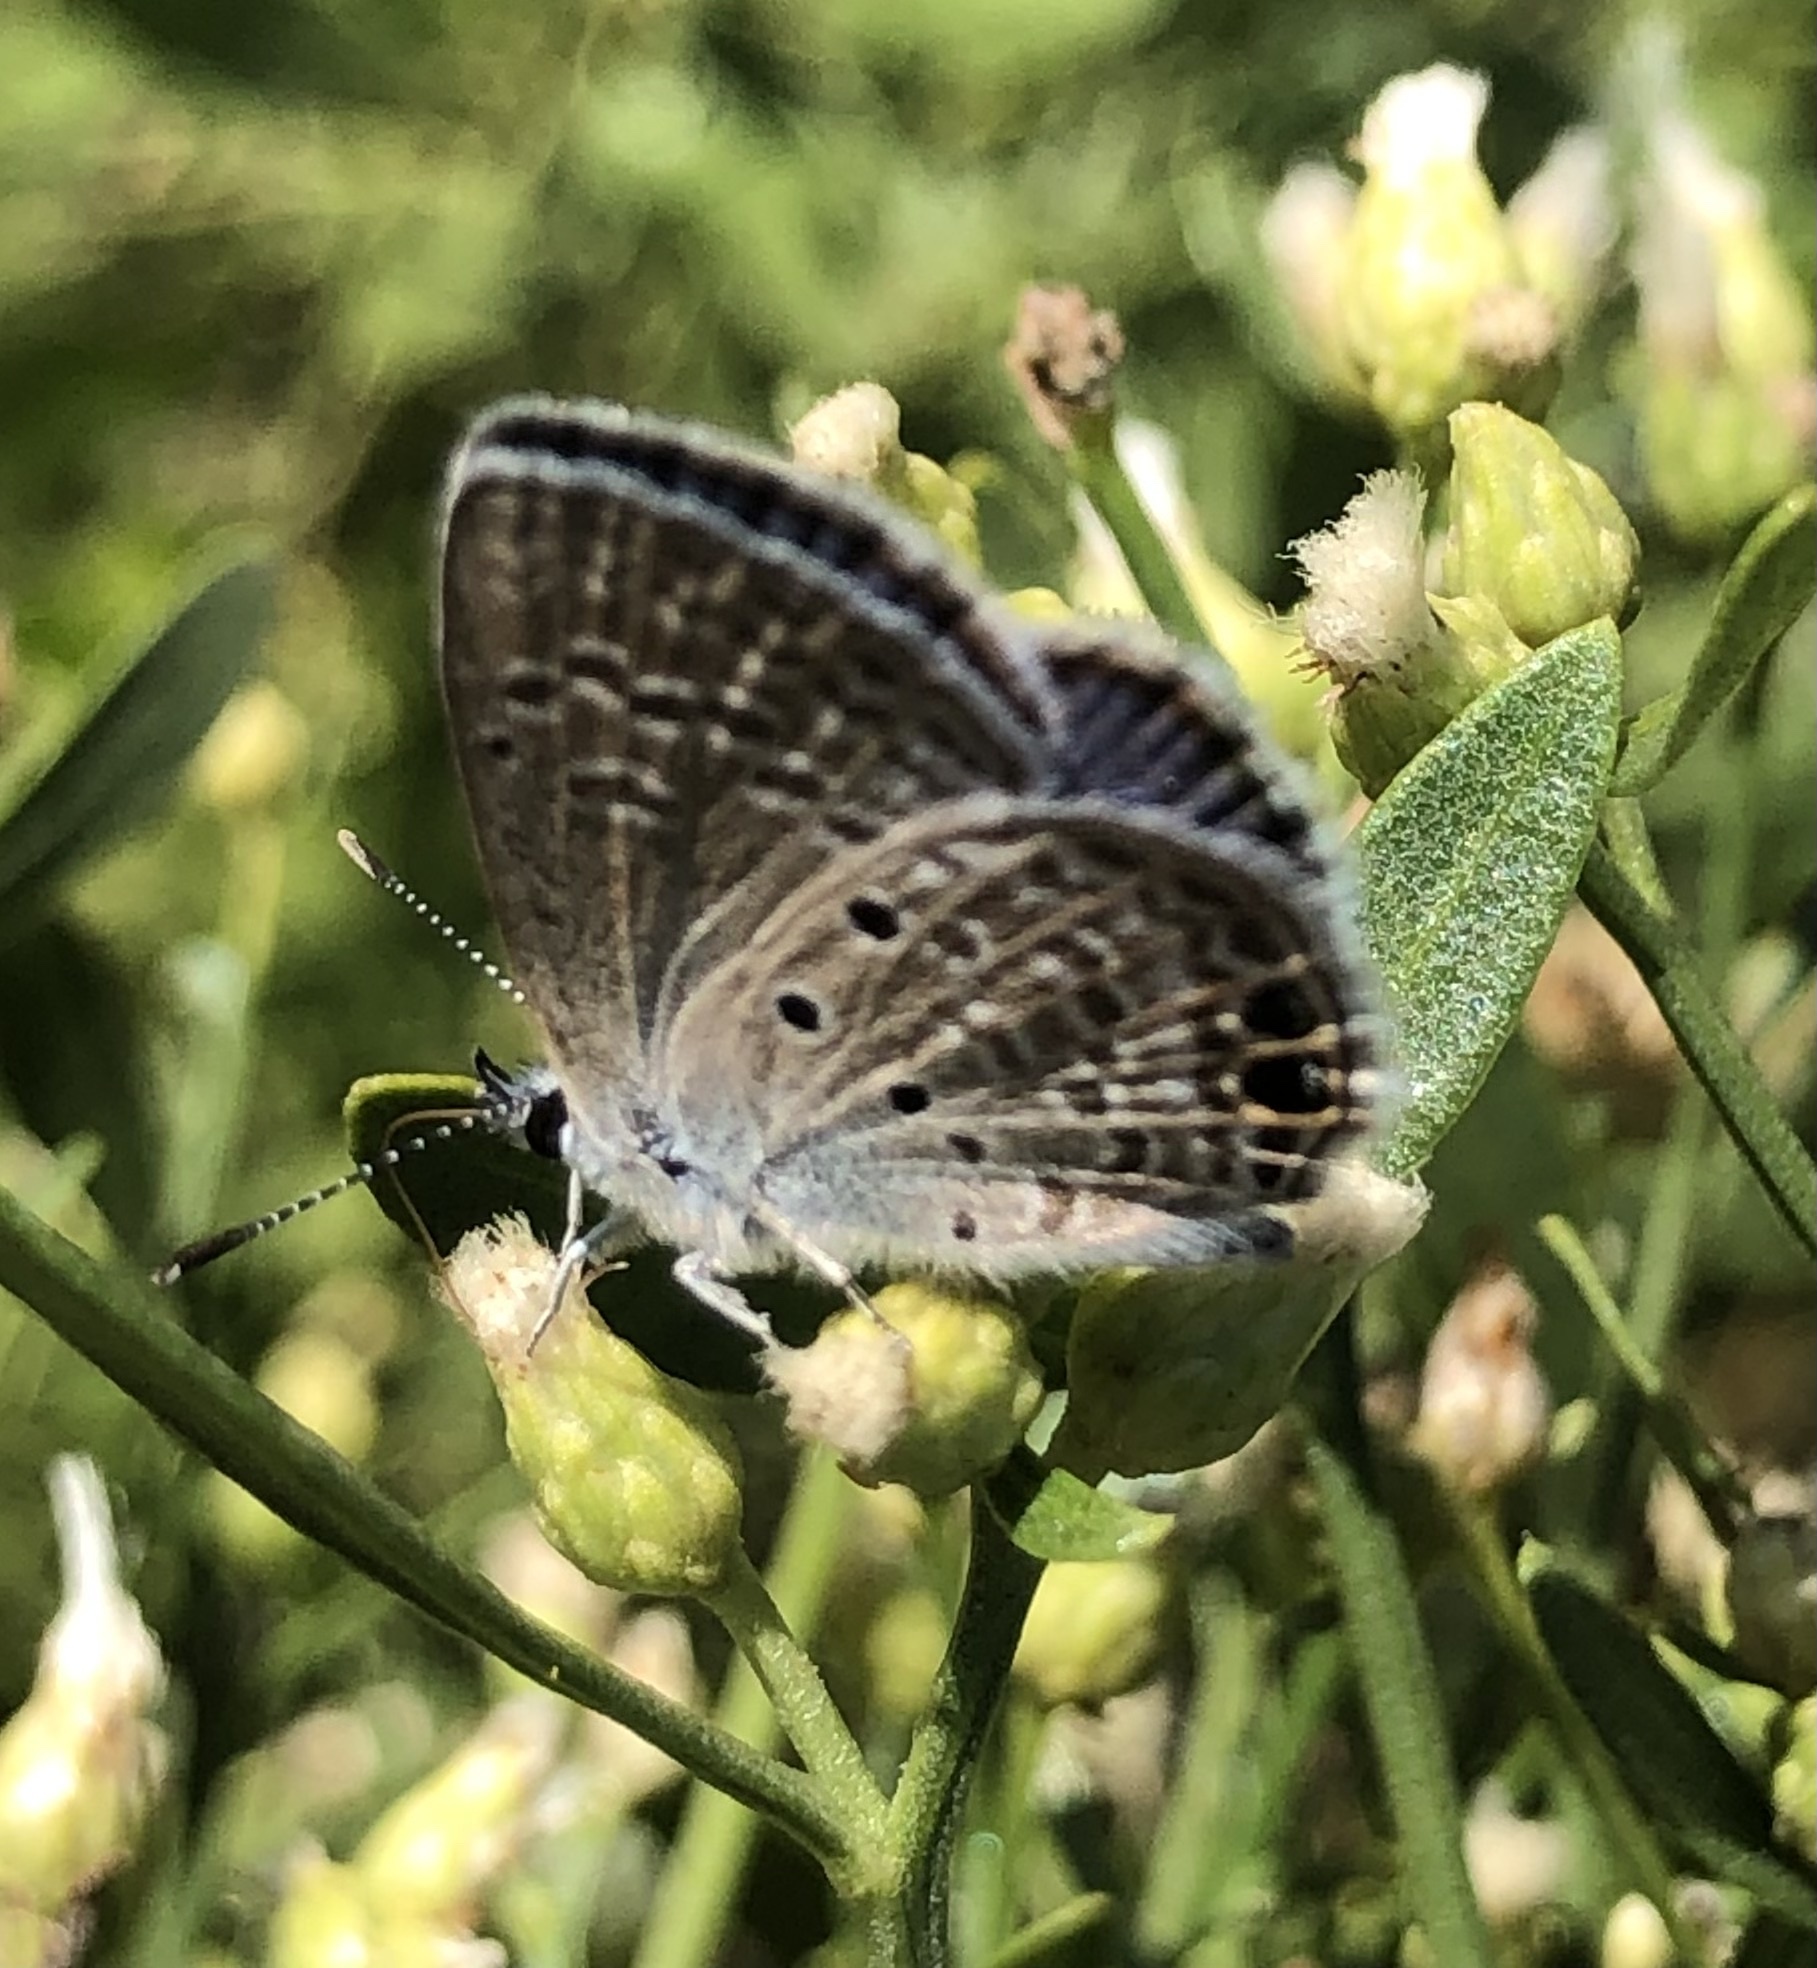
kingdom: Animalia
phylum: Arthropoda
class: Insecta
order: Lepidoptera
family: Lycaenidae
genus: Hemiargus
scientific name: Hemiargus ceraunus
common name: Ceraunus blue
